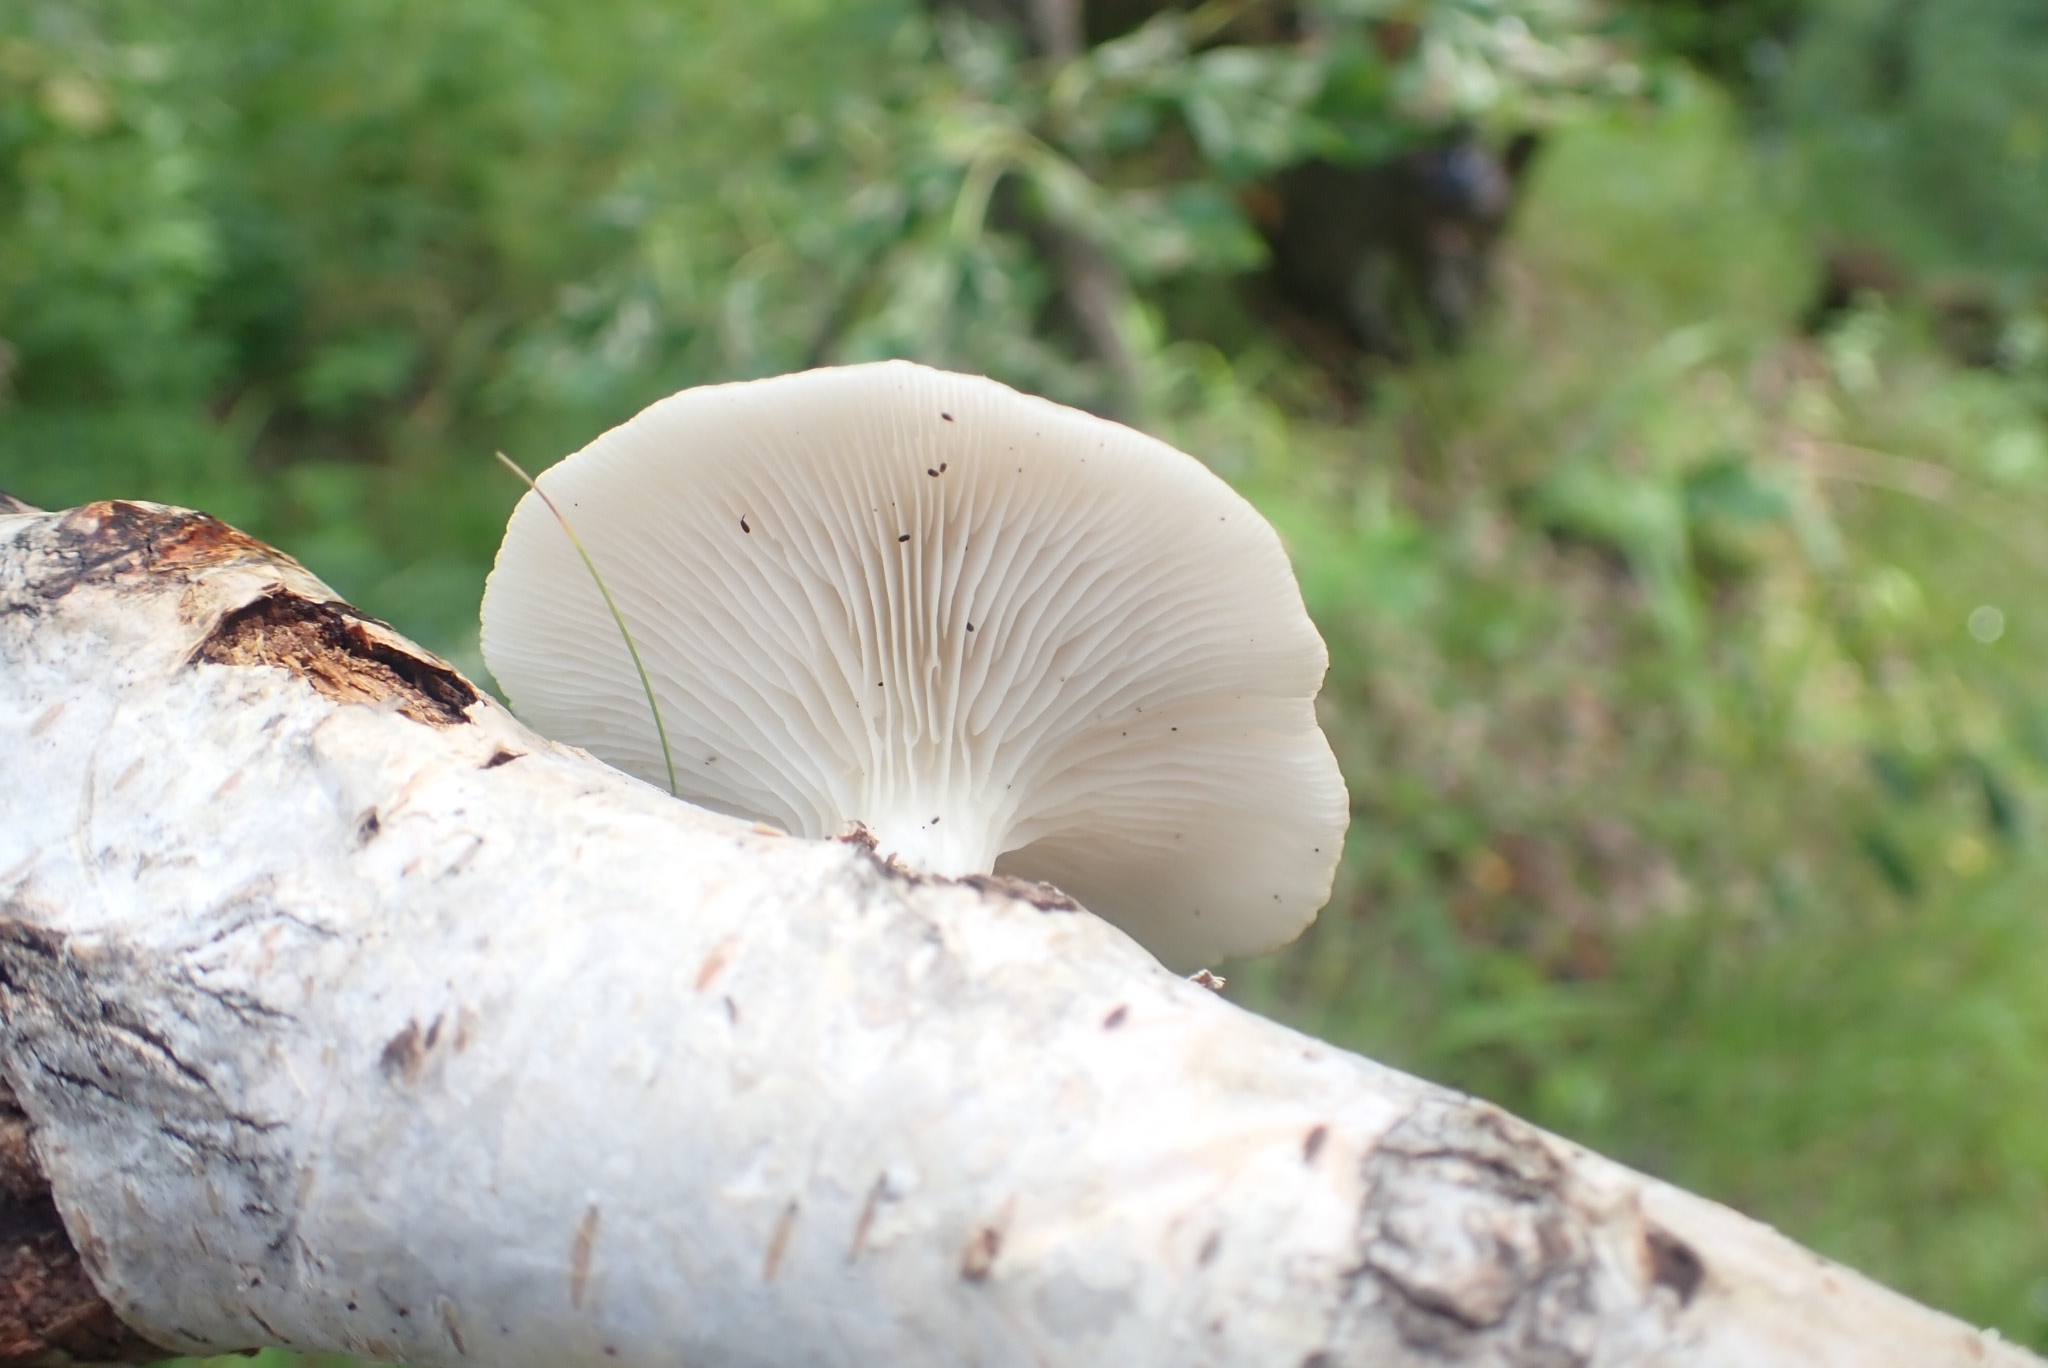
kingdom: Fungi
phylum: Basidiomycota
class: Agaricomycetes
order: Agaricales
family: Pleurotaceae
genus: Pleurotus
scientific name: Pleurotus pulmonarius
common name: Pale oyster
